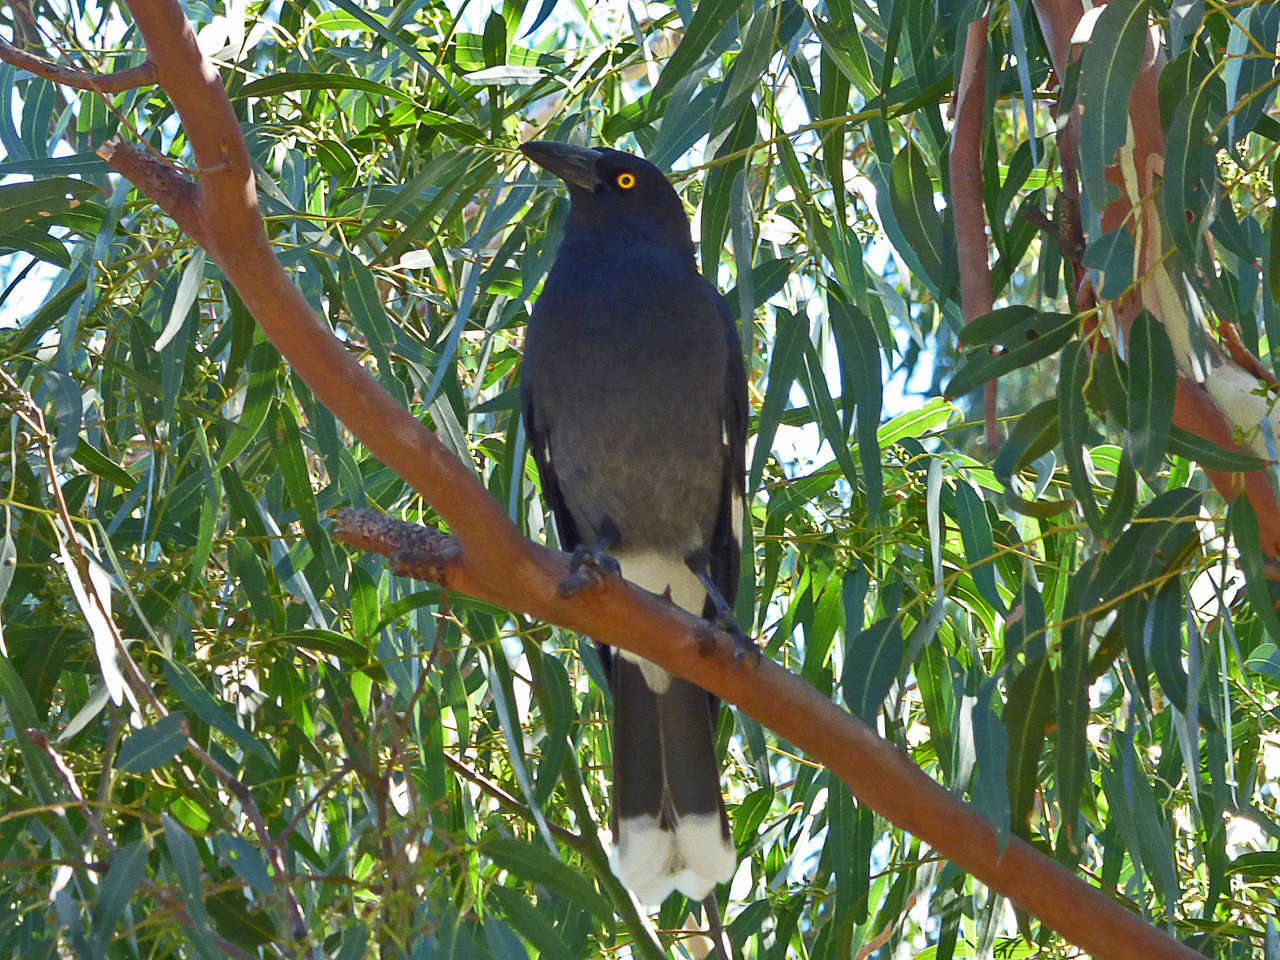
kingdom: Animalia
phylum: Chordata
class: Aves
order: Passeriformes
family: Cracticidae
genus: Strepera
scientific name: Strepera graculina
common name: Pied currawong
